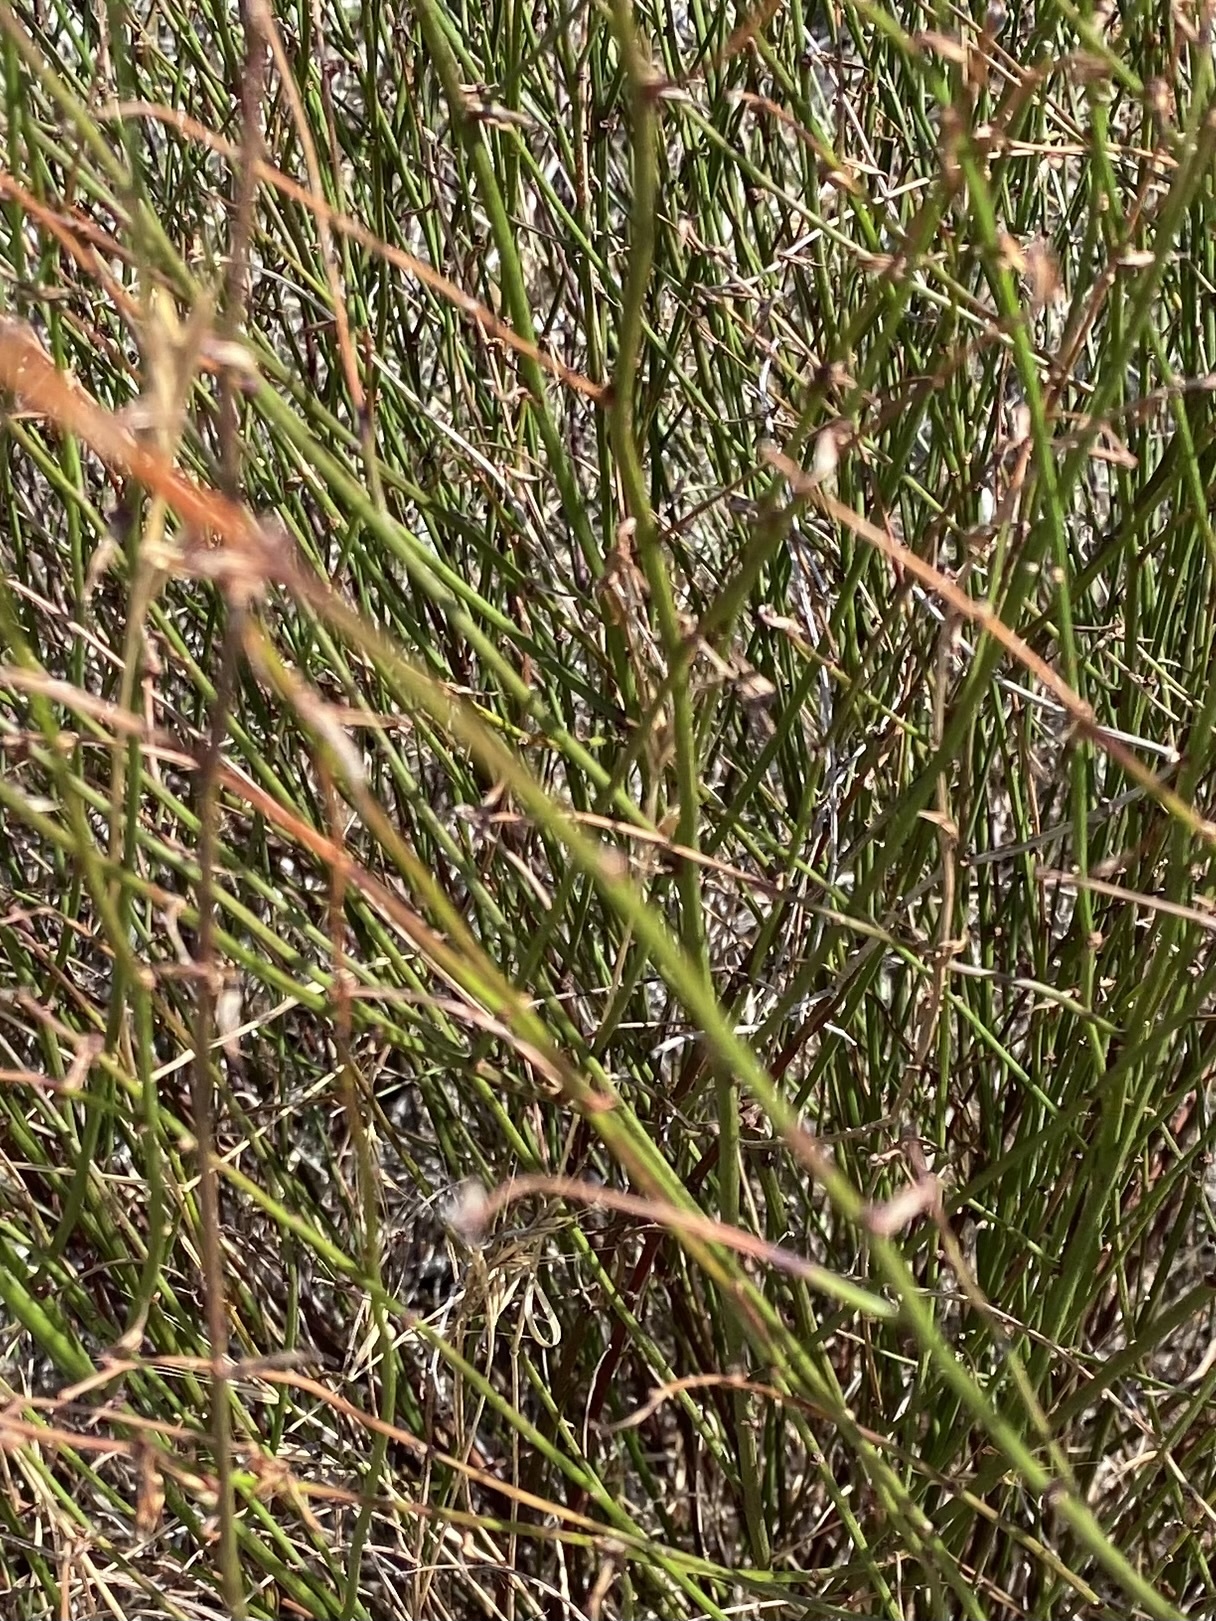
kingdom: Plantae
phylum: Tracheophyta
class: Magnoliopsida
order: Fabales
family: Fabaceae
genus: Acmispon
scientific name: Acmispon glaber
